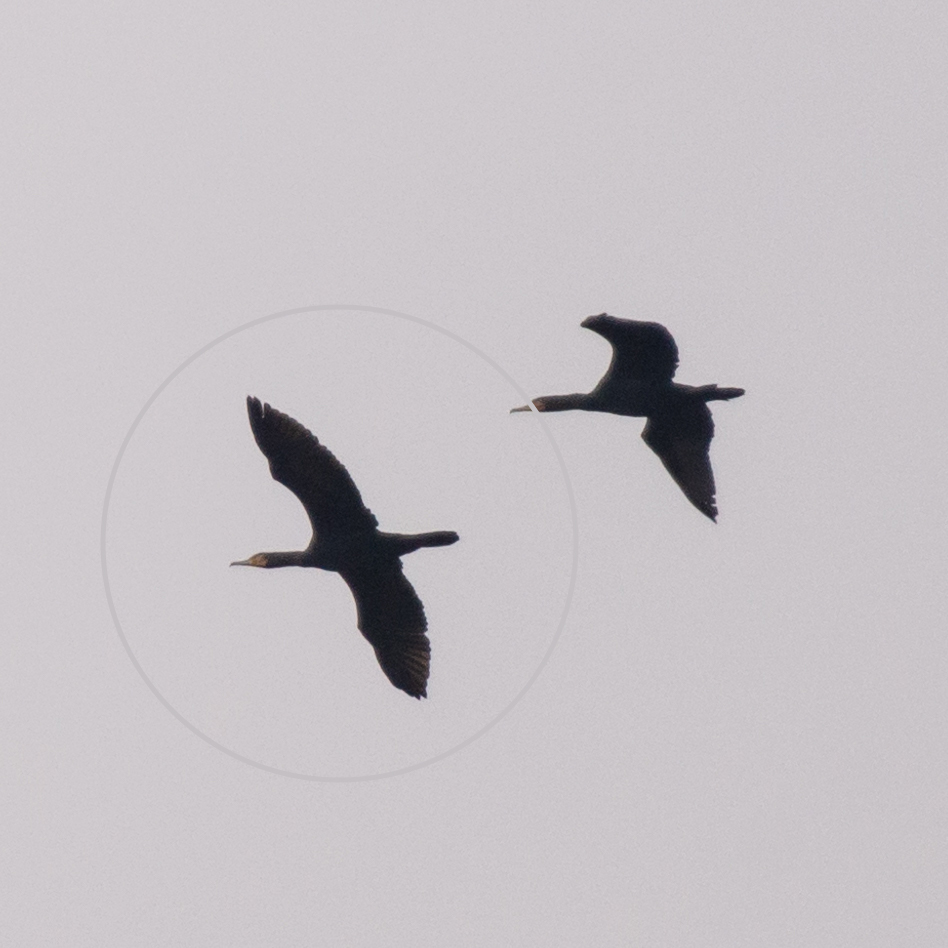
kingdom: Animalia
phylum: Chordata
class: Aves
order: Suliformes
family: Phalacrocoracidae
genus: Phalacrocorax
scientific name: Phalacrocorax carbo
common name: Great cormorant
